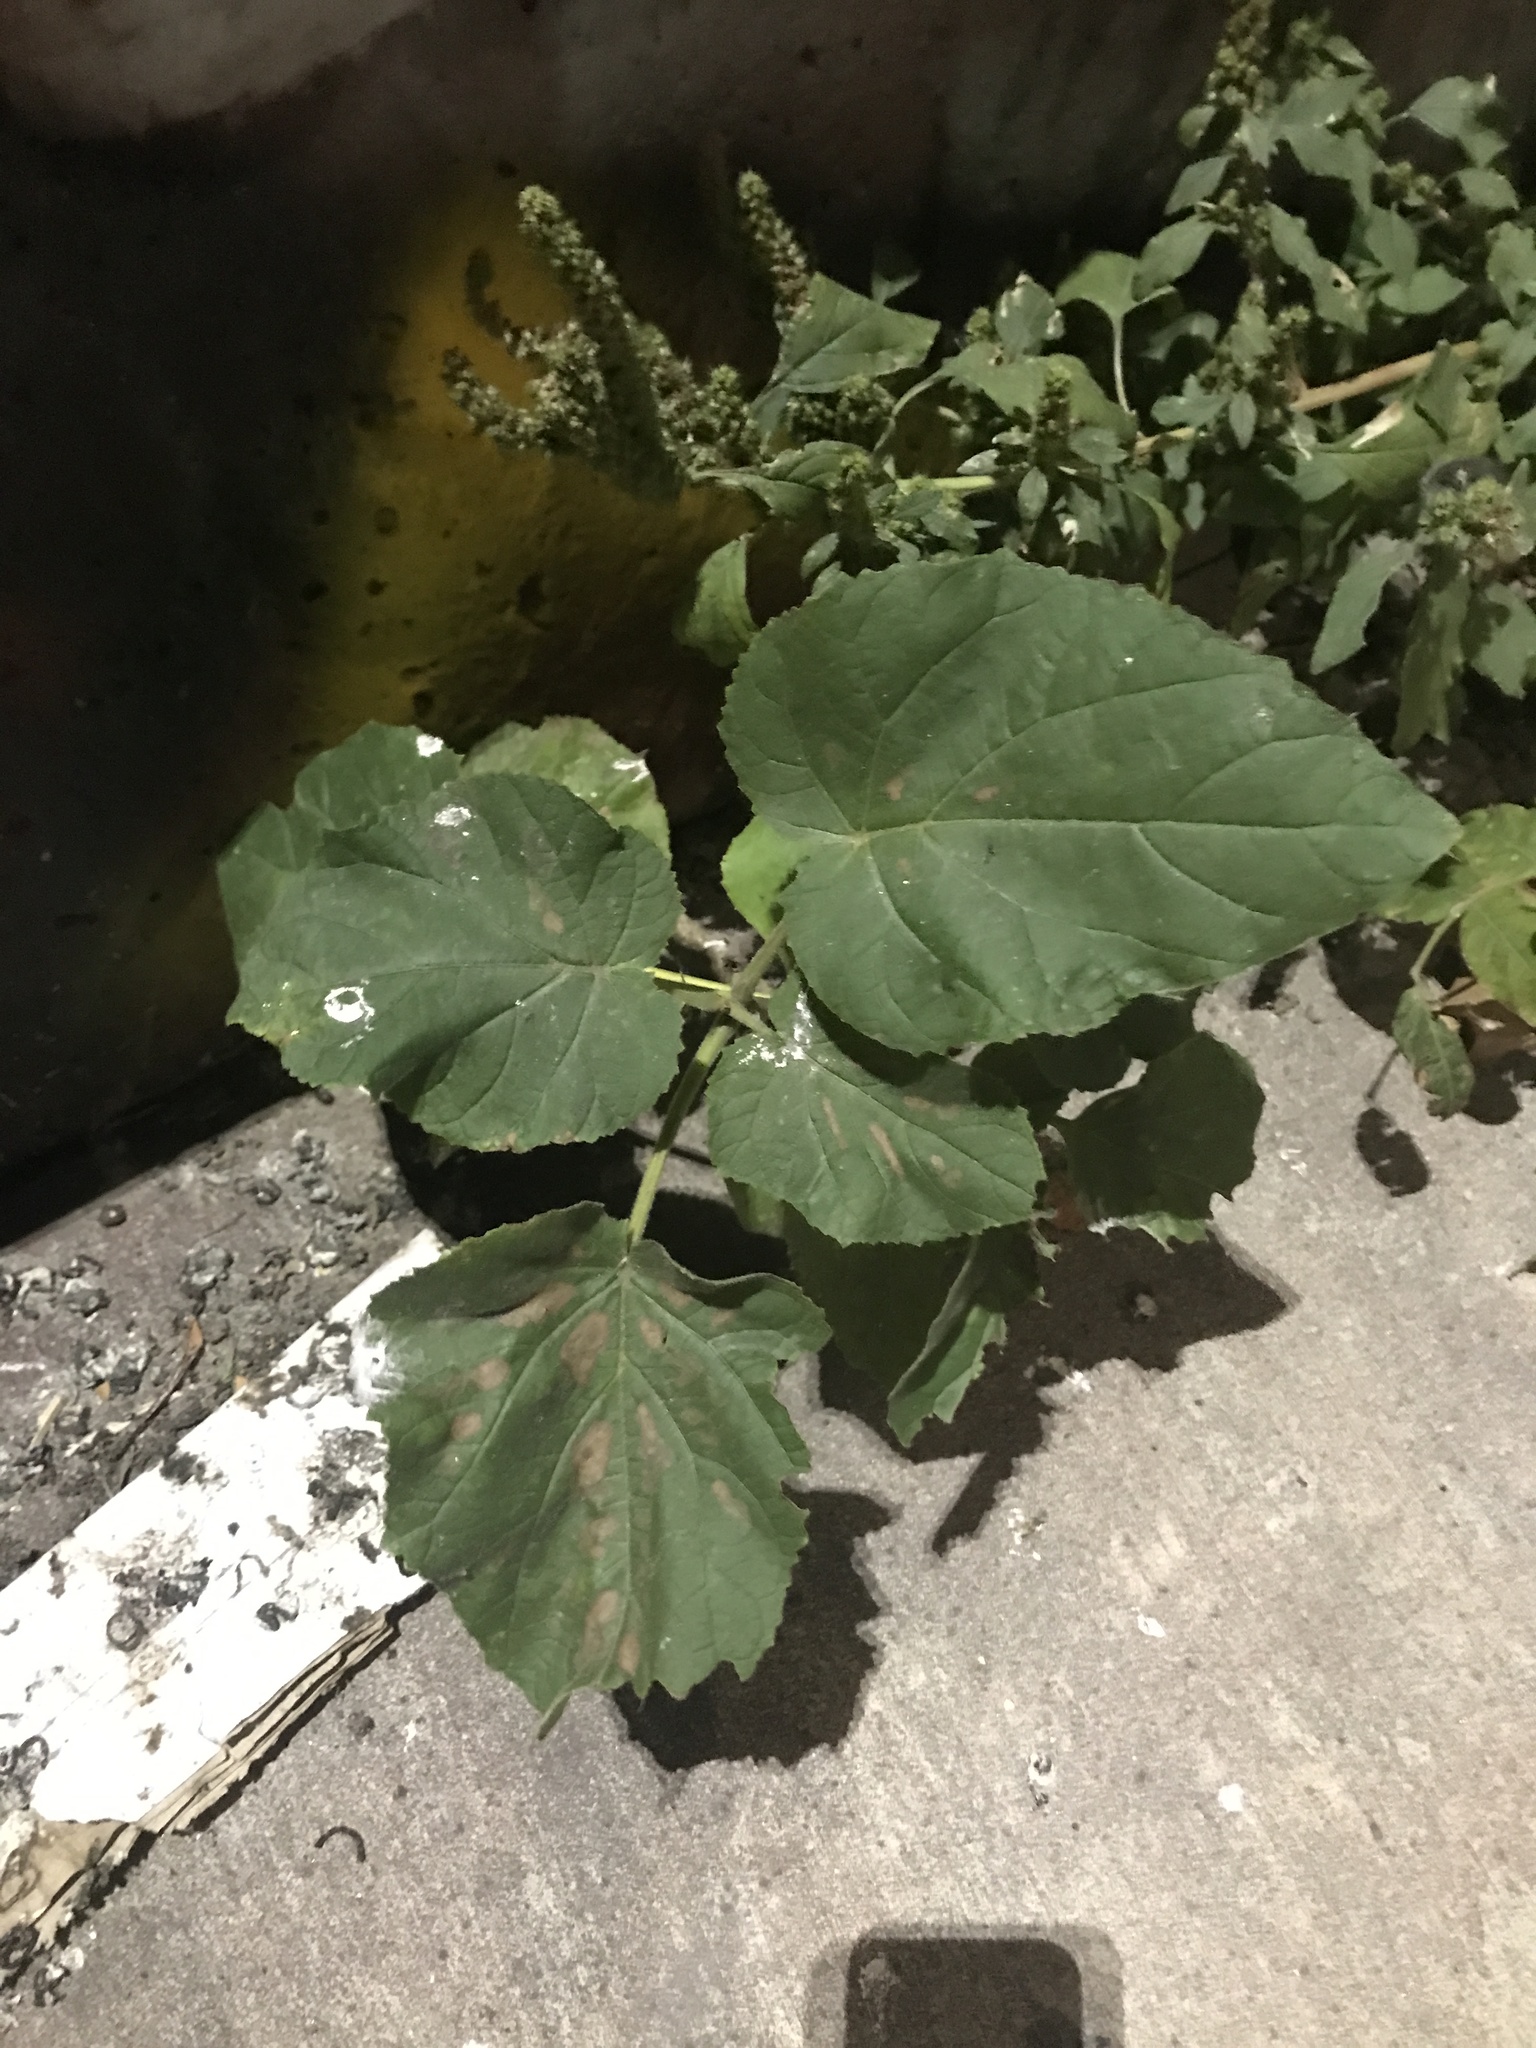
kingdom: Plantae
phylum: Tracheophyta
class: Magnoliopsida
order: Lamiales
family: Paulowniaceae
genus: Paulownia
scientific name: Paulownia tomentosa
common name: Foxglove-tree
